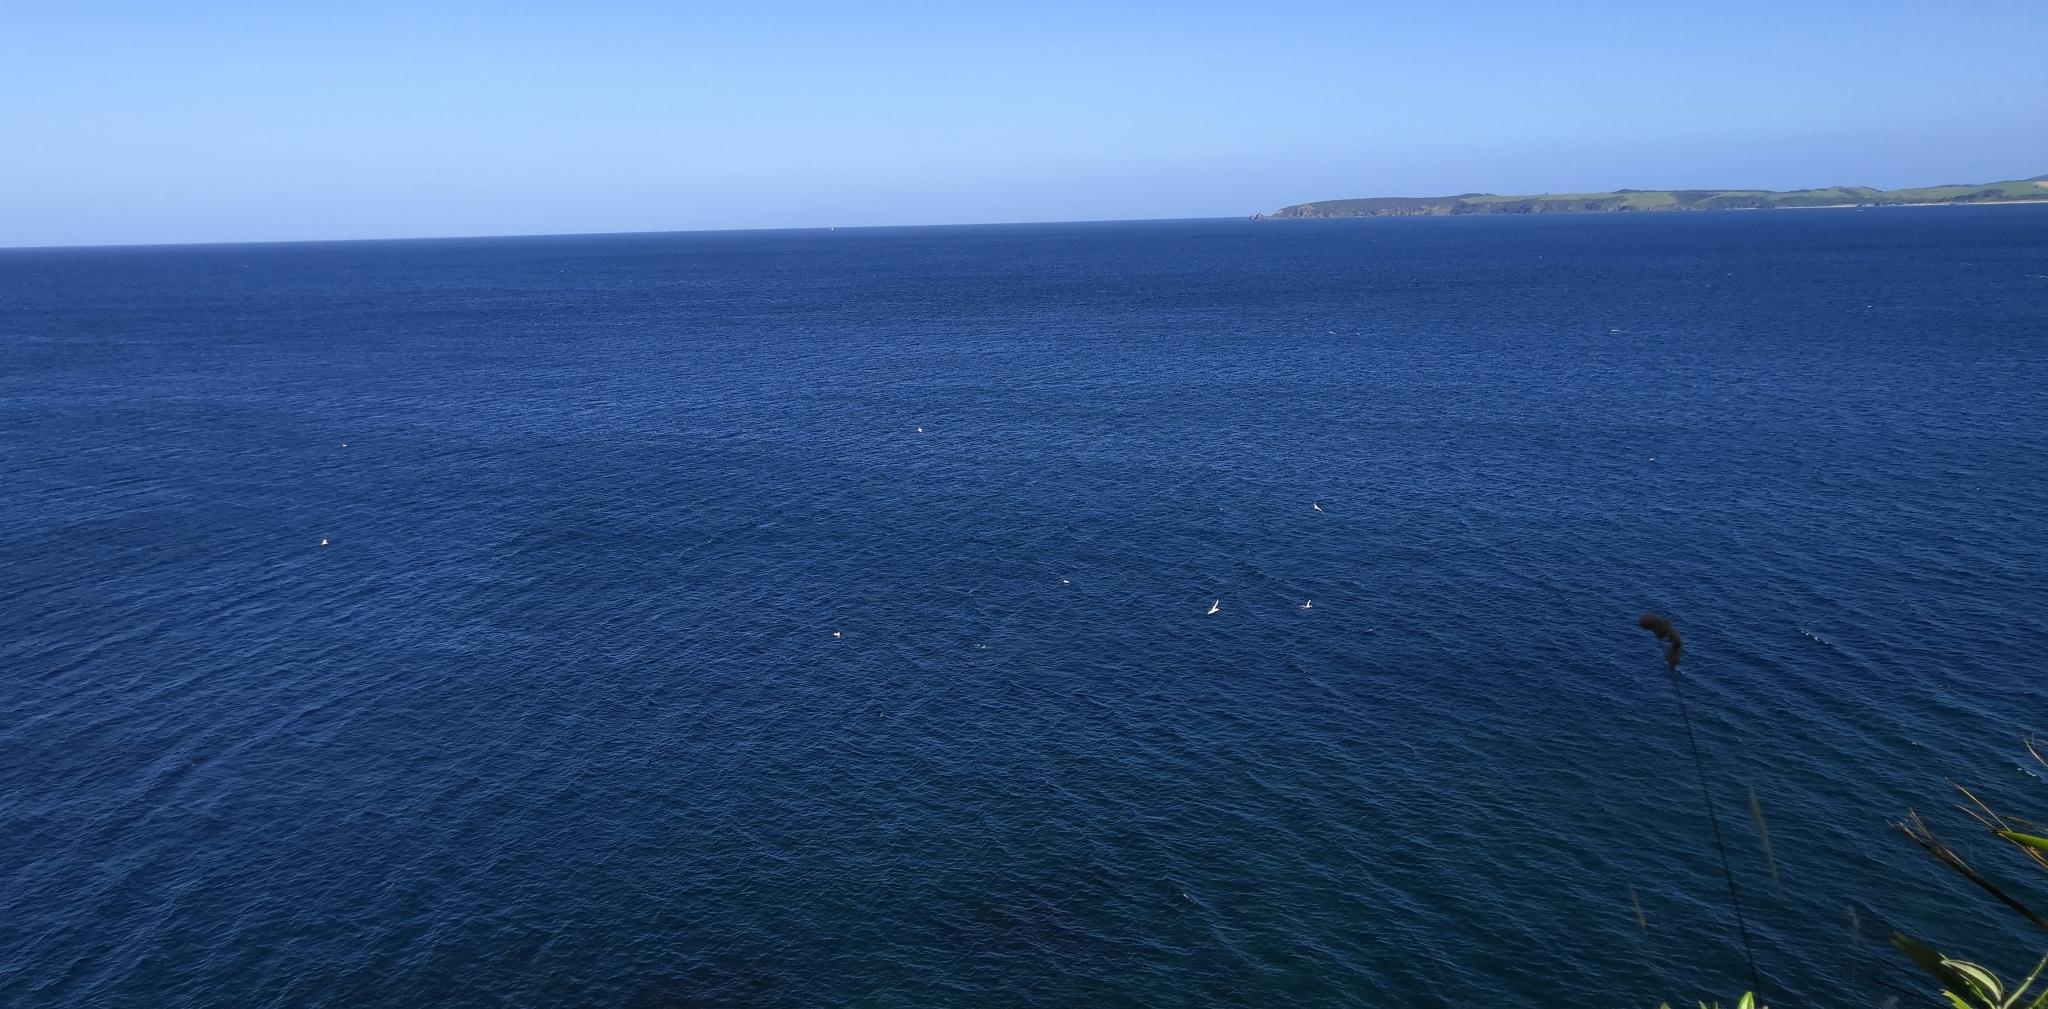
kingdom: Animalia
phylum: Chordata
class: Aves
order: Suliformes
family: Sulidae
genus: Morus
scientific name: Morus serrator
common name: Australasian gannet
